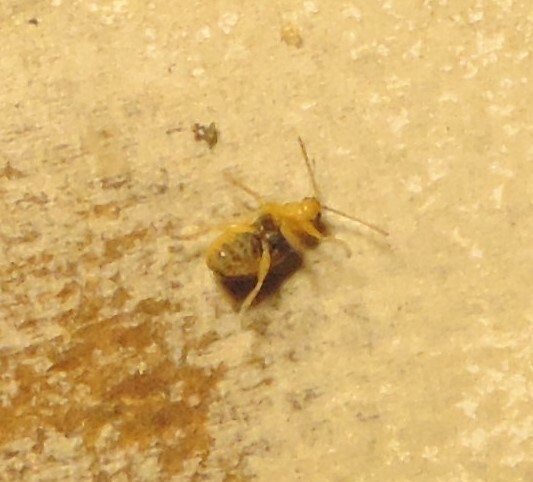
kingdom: Animalia
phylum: Arthropoda
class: Insecta
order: Coleoptera
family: Chrysomelidae
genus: Xanthogaleruca
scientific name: Xanthogaleruca luteola
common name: Elm leaf beetle
